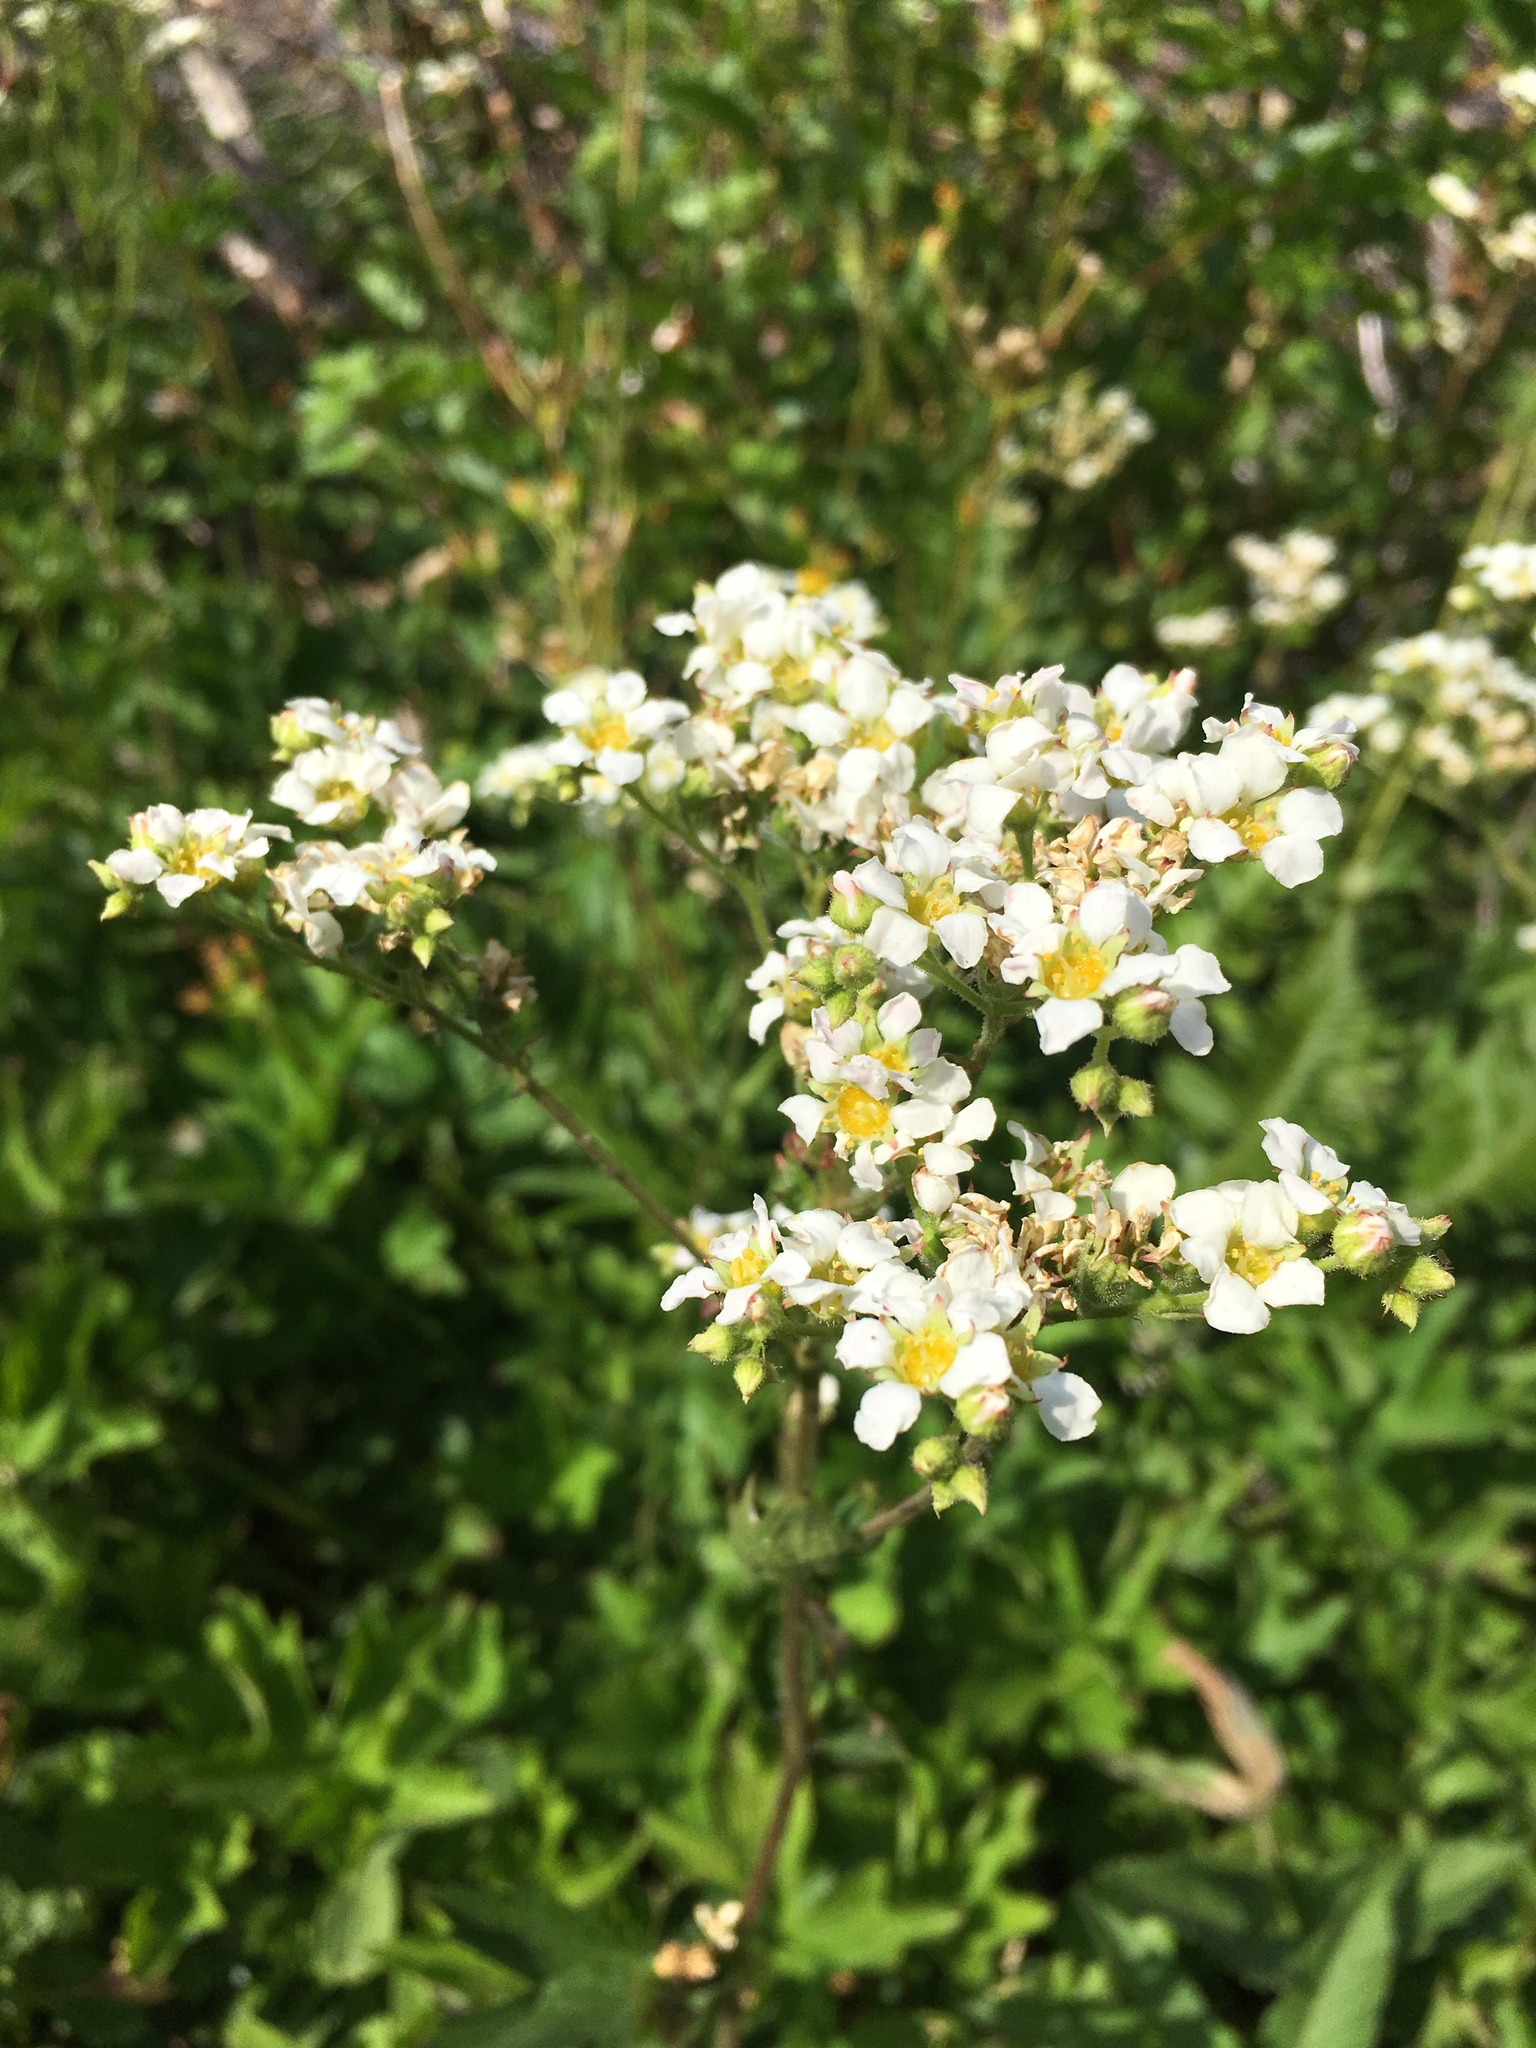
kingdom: Plantae
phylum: Tracheophyta
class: Magnoliopsida
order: Saxifragales
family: Saxifragaceae
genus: Boykinia
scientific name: Boykinia major
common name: Large boykinia
